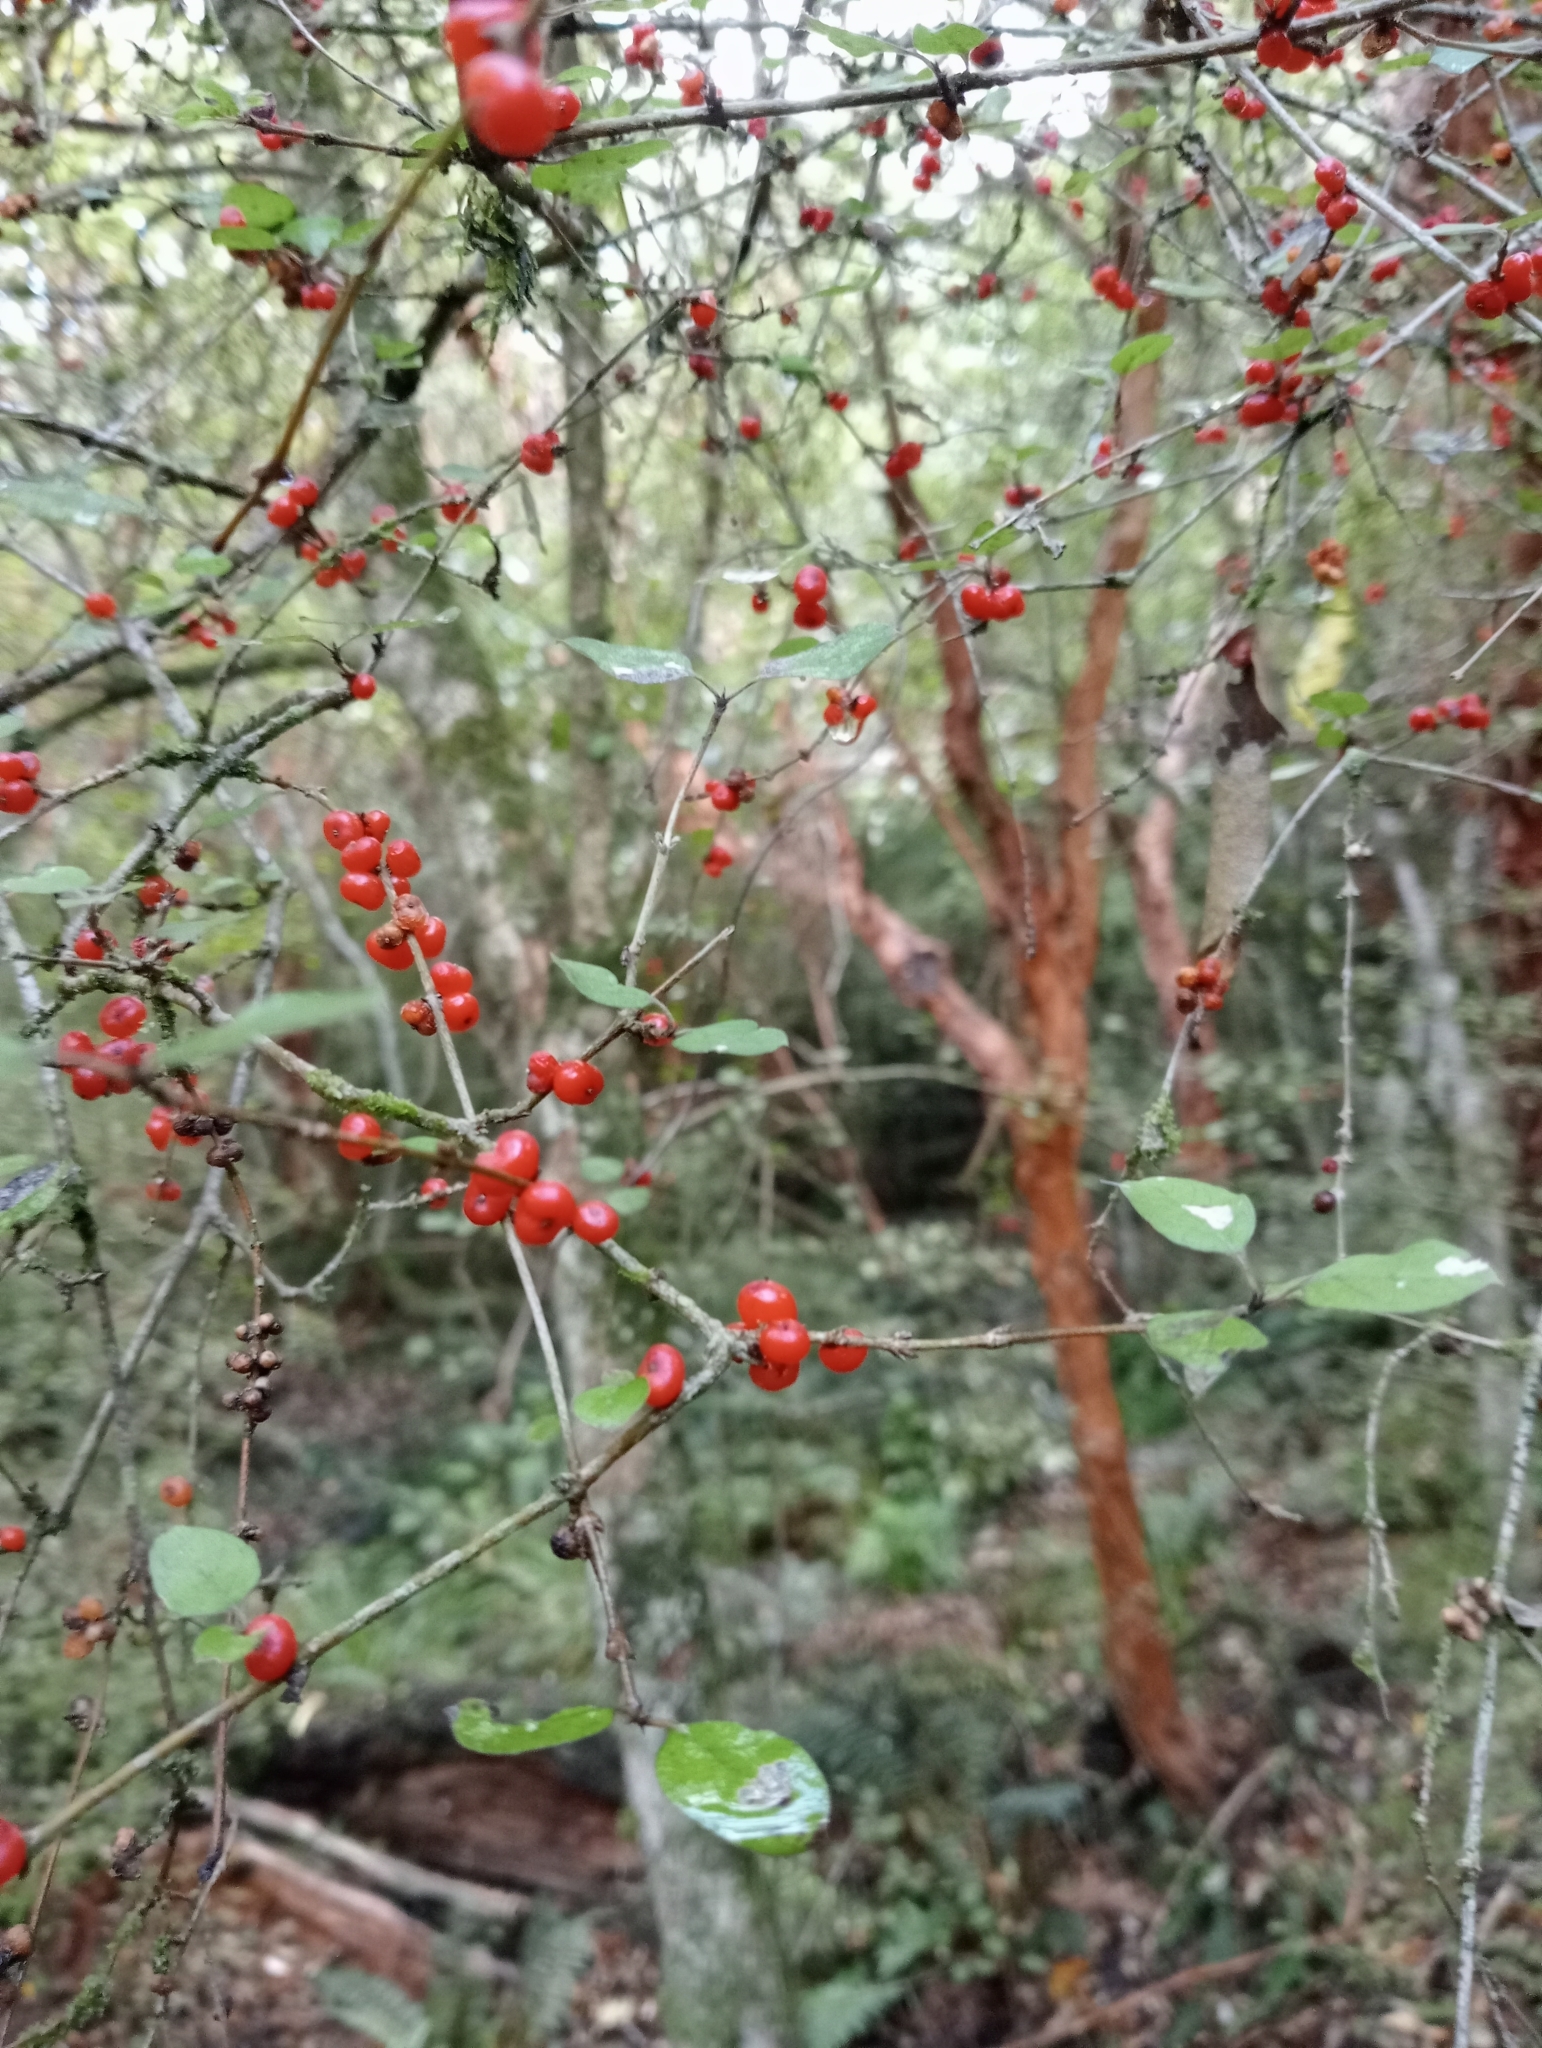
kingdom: Plantae
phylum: Tracheophyta
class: Magnoliopsida
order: Gentianales
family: Rubiaceae
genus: Coprosma
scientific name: Coprosma rotundifolia
